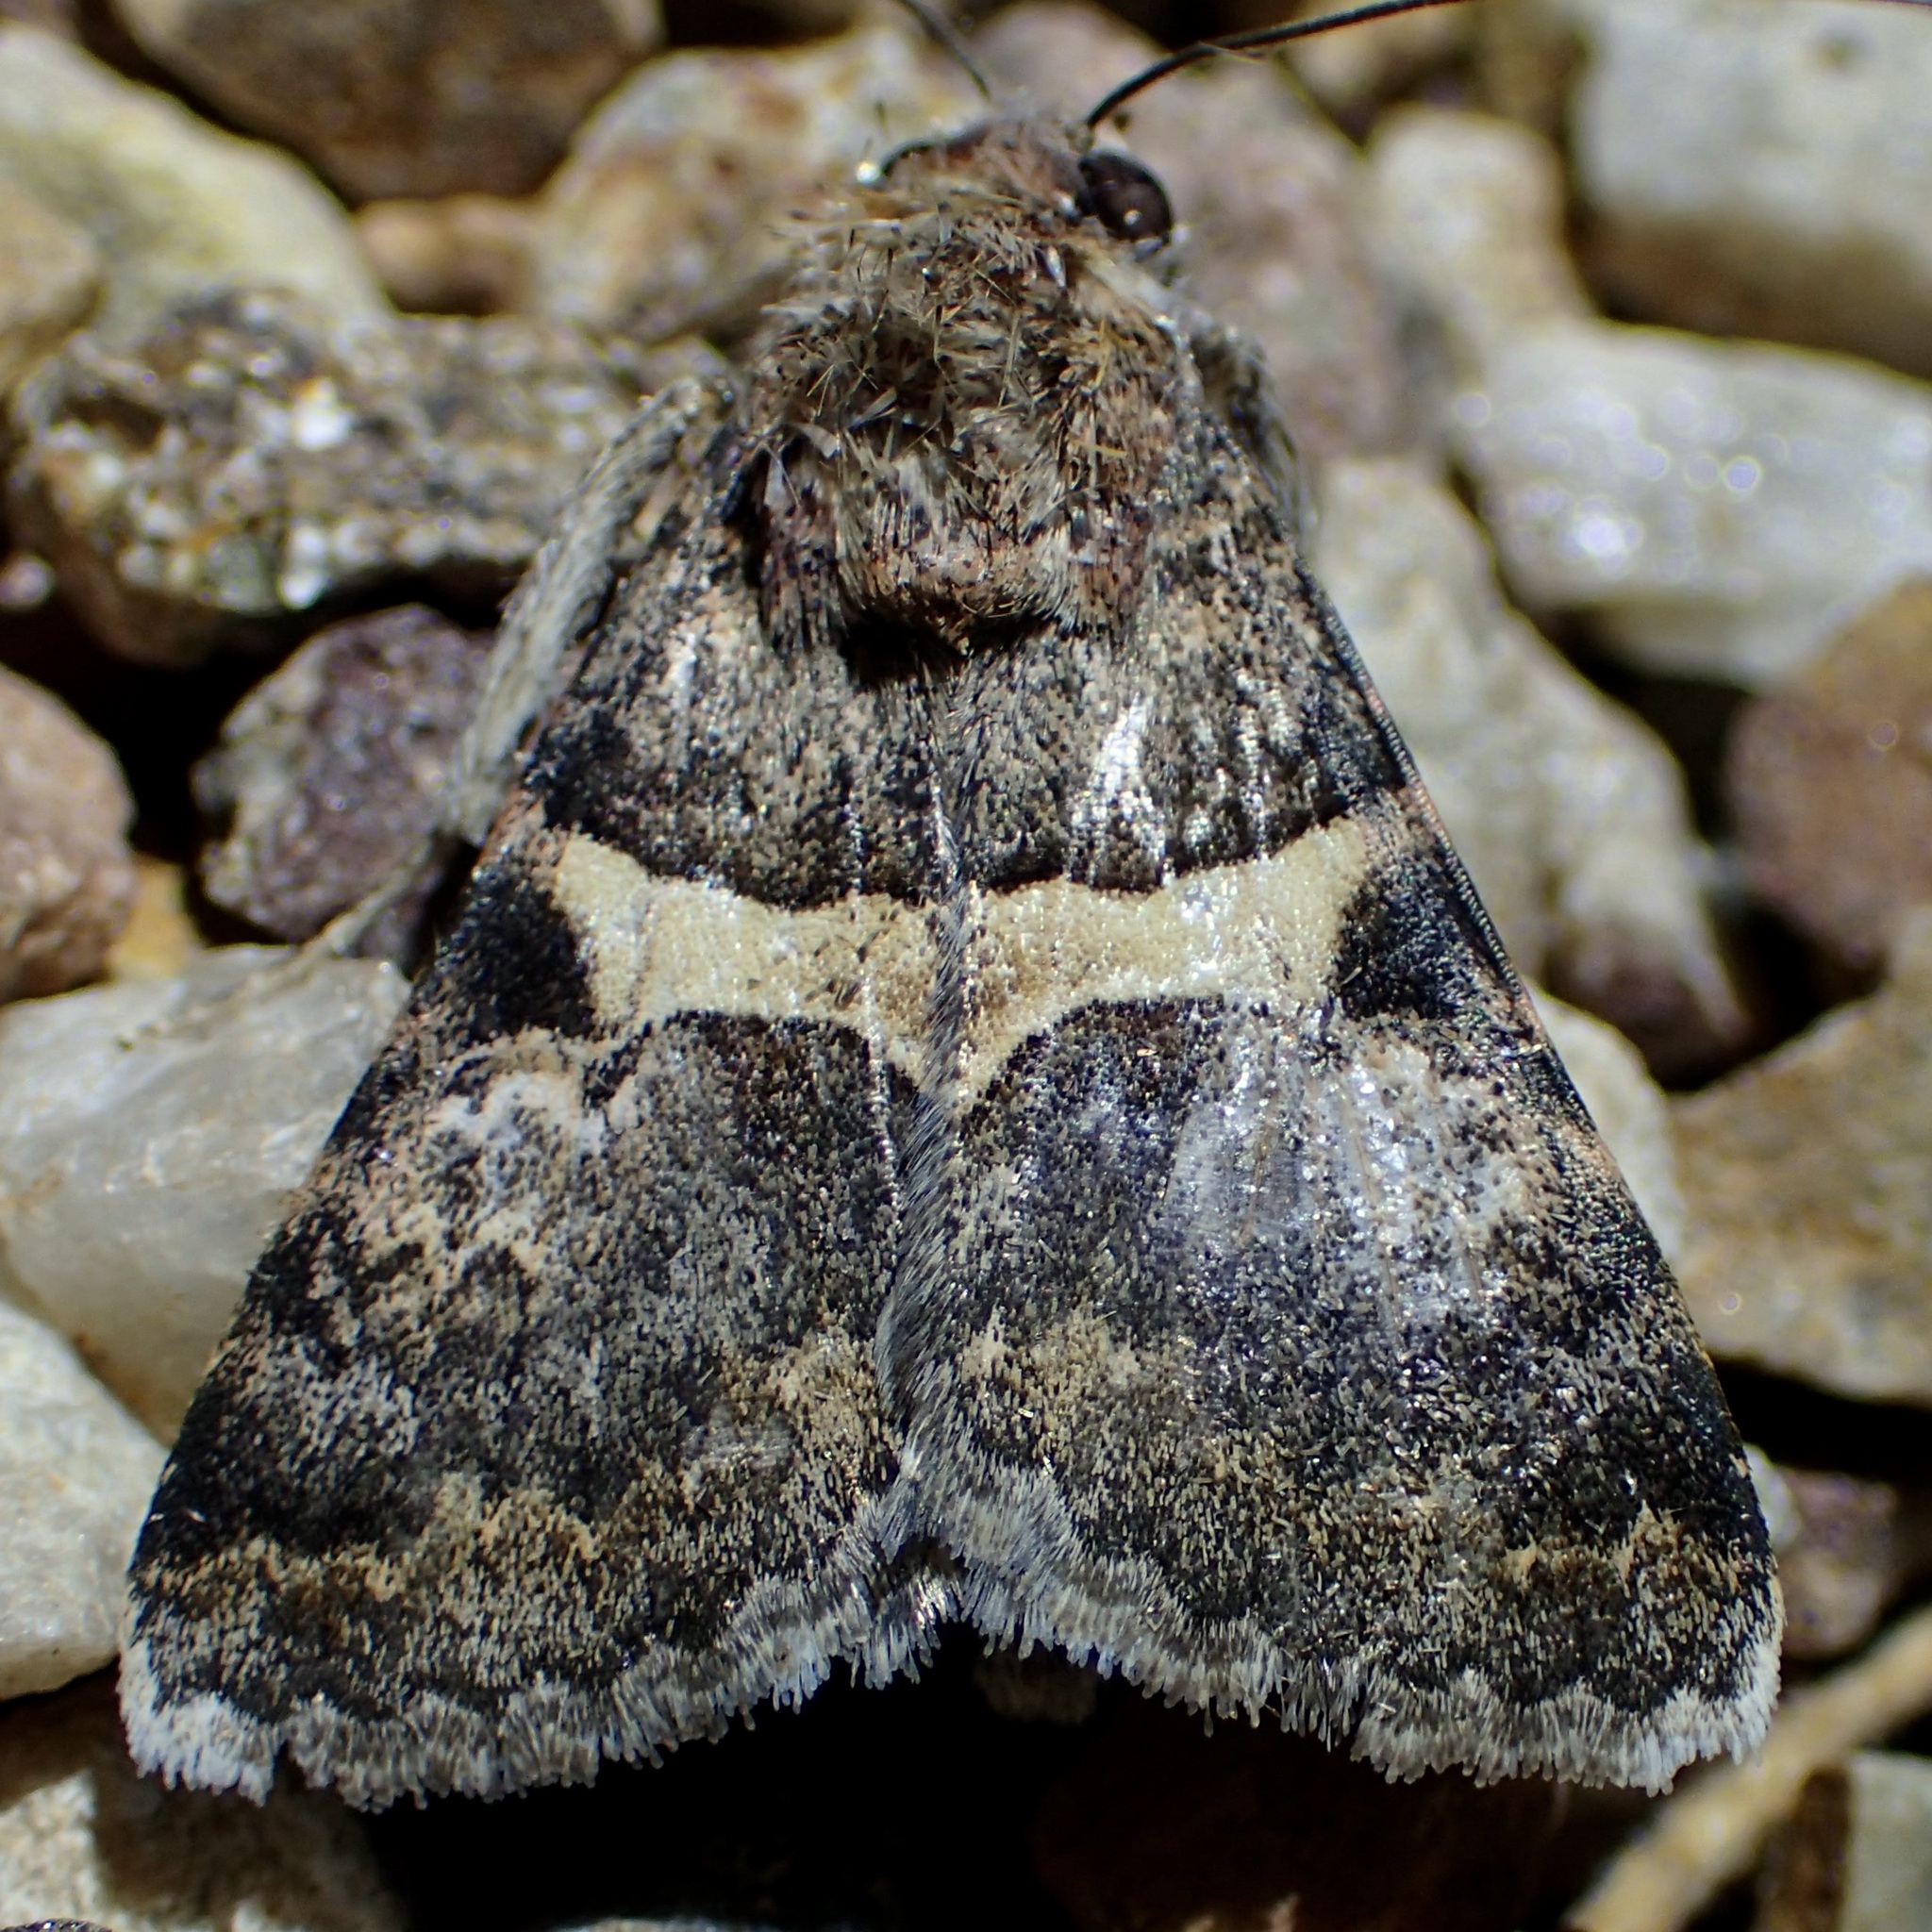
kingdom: Animalia
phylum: Arthropoda
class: Insecta
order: Lepidoptera
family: Erebidae
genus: Melipotis
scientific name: Melipotis jucunda
